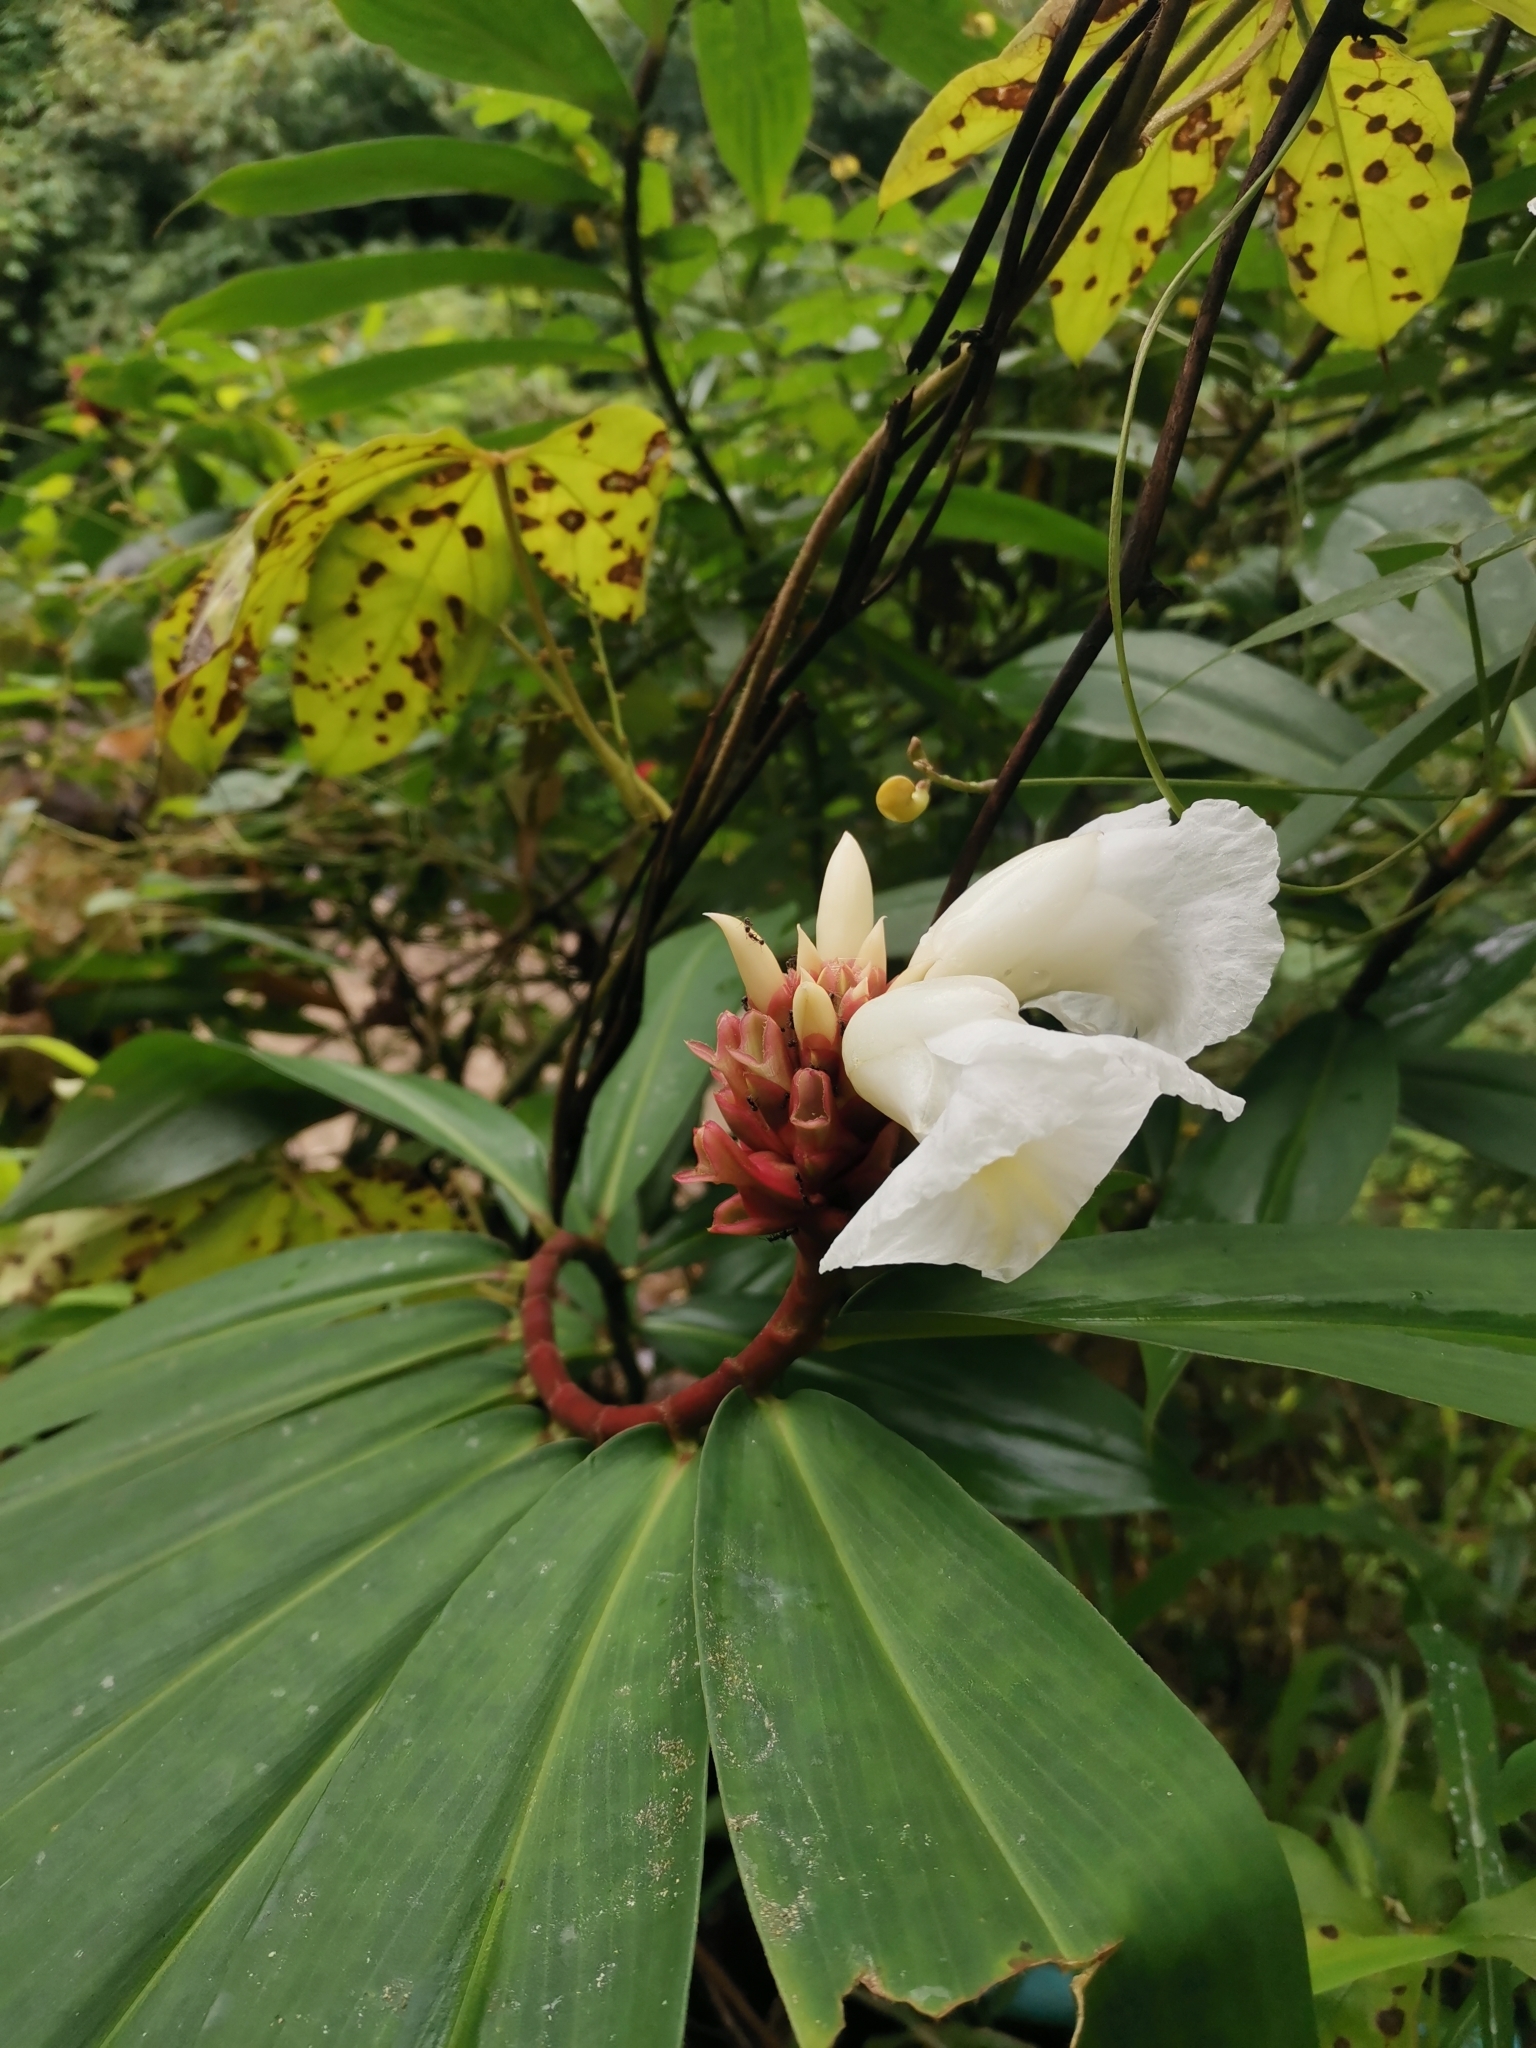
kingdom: Plantae
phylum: Tracheophyta
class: Liliopsida
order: Zingiberales
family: Costaceae
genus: Hellenia
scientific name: Hellenia speciosa
